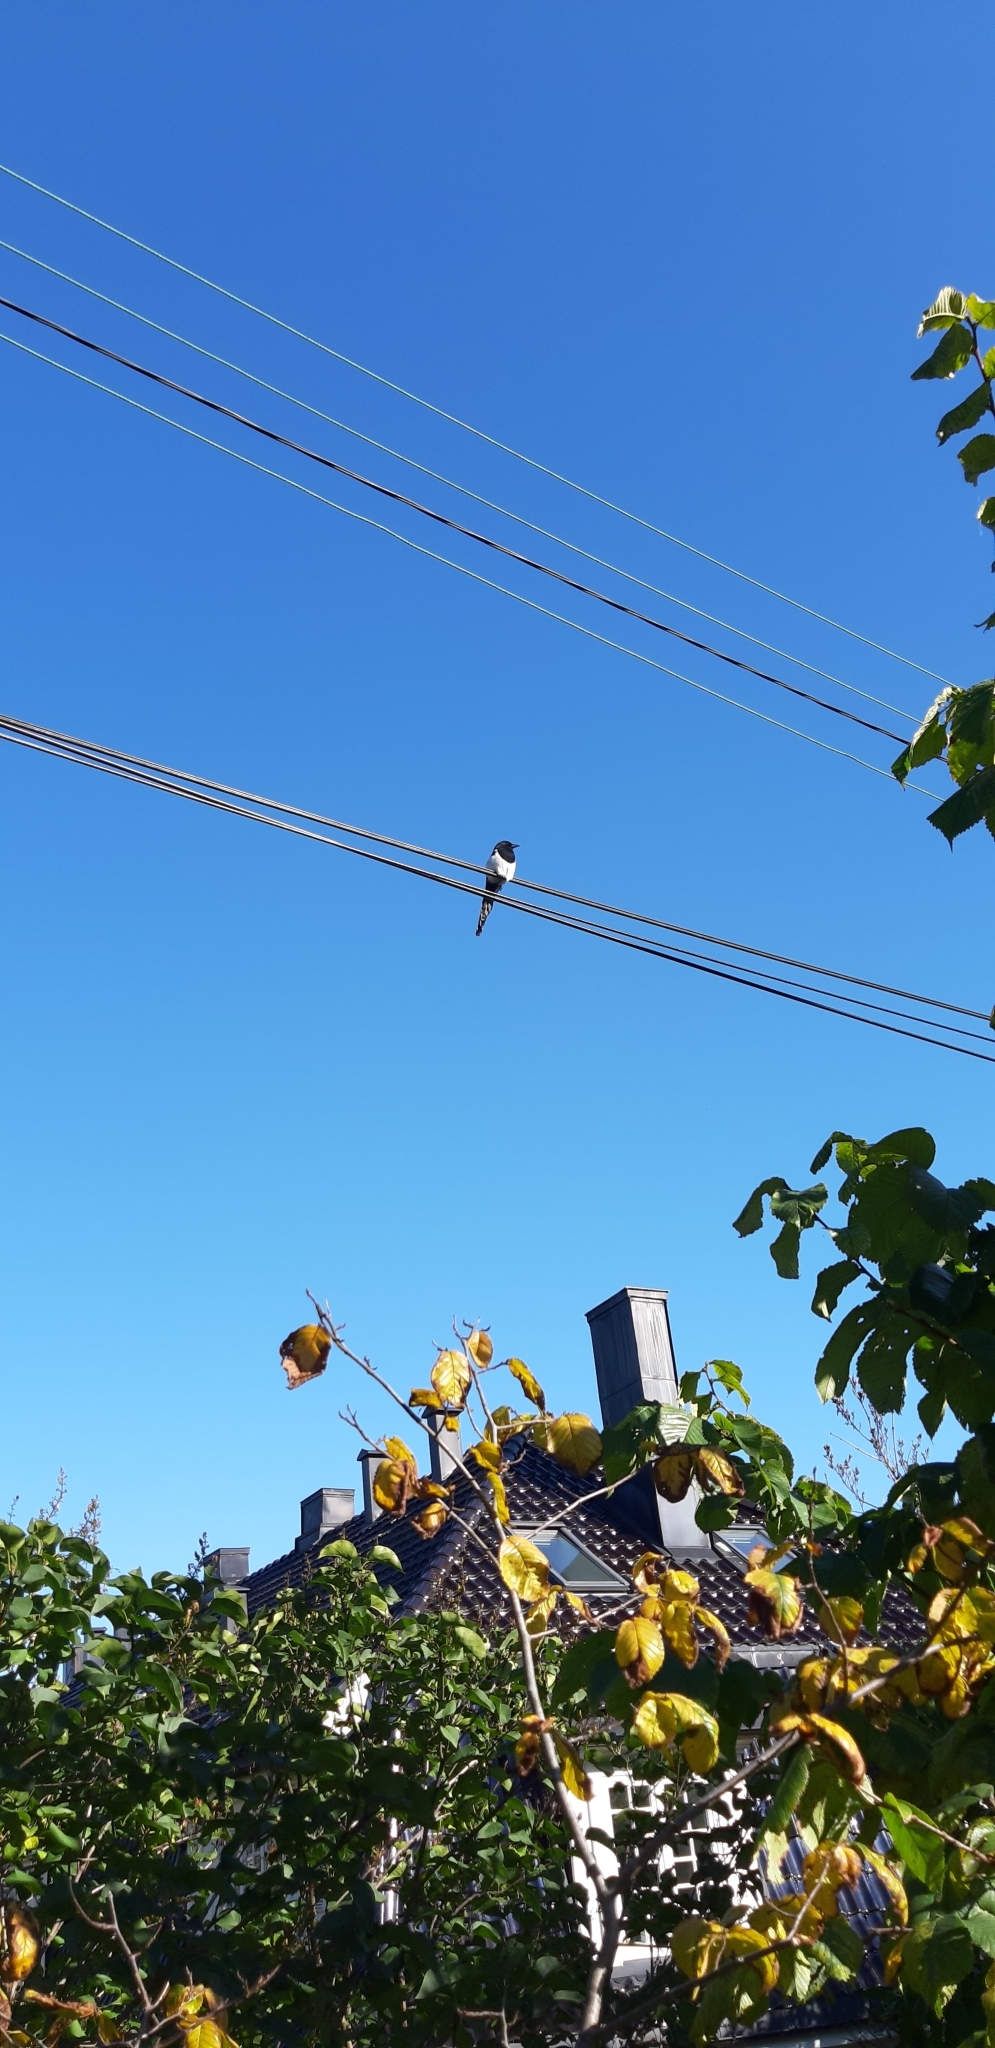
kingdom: Animalia
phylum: Chordata
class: Aves
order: Passeriformes
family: Corvidae
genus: Pica
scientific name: Pica pica
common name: Eurasian magpie
